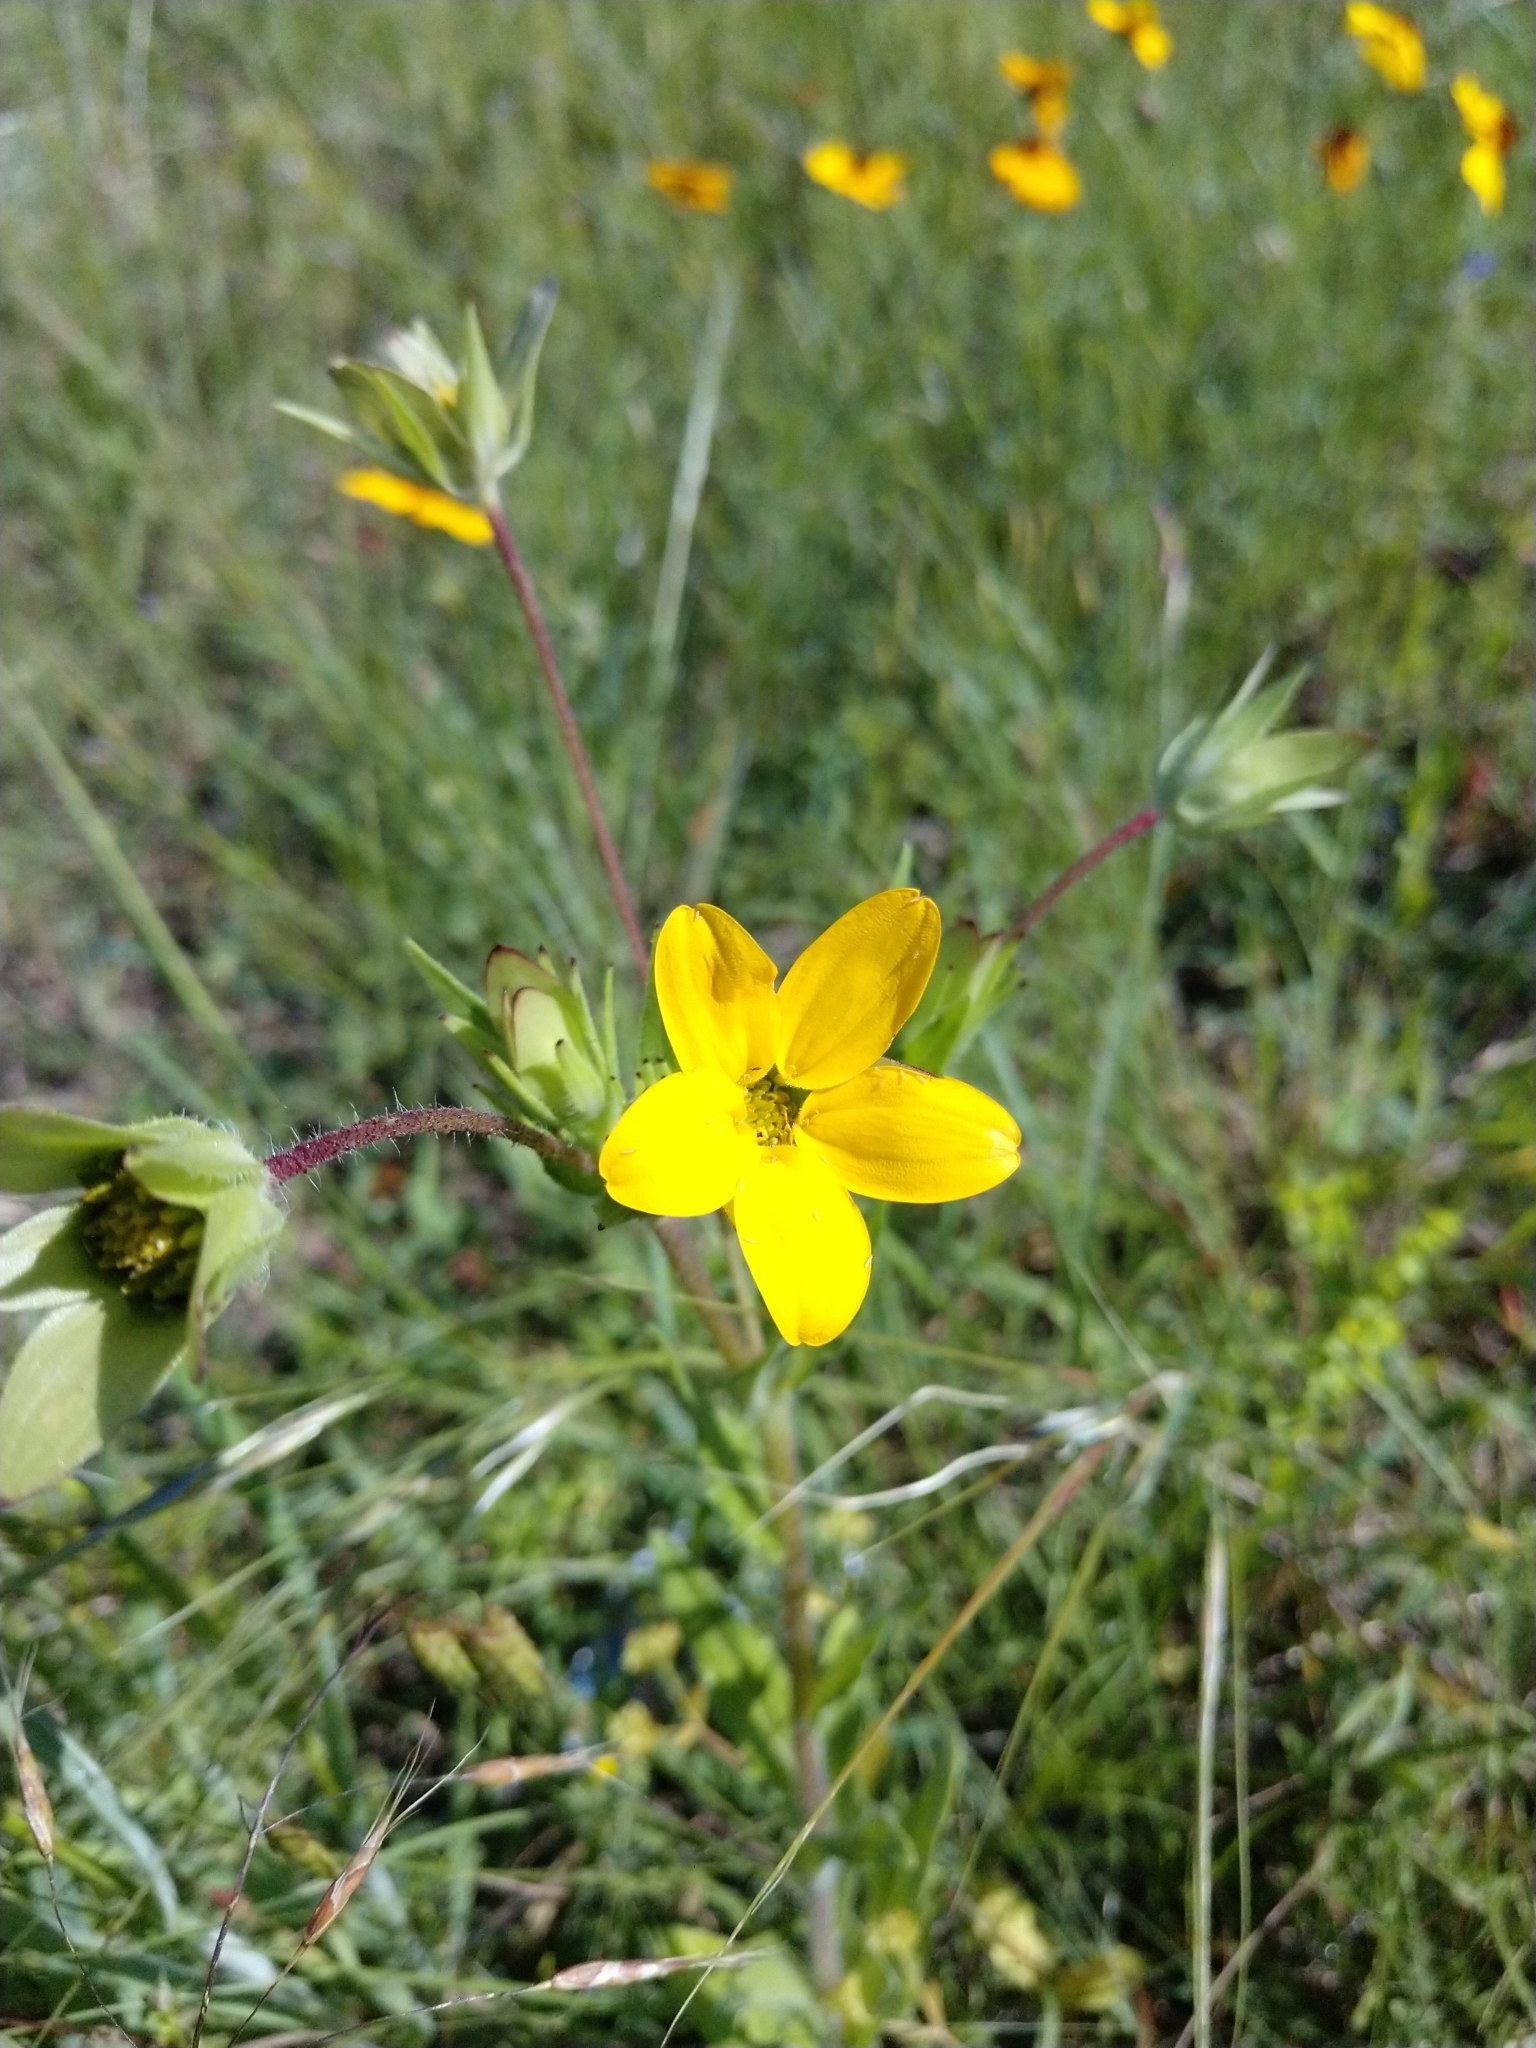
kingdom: Plantae
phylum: Tracheophyta
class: Magnoliopsida
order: Asterales
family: Asteraceae
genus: Lindheimera
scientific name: Lindheimera texana
